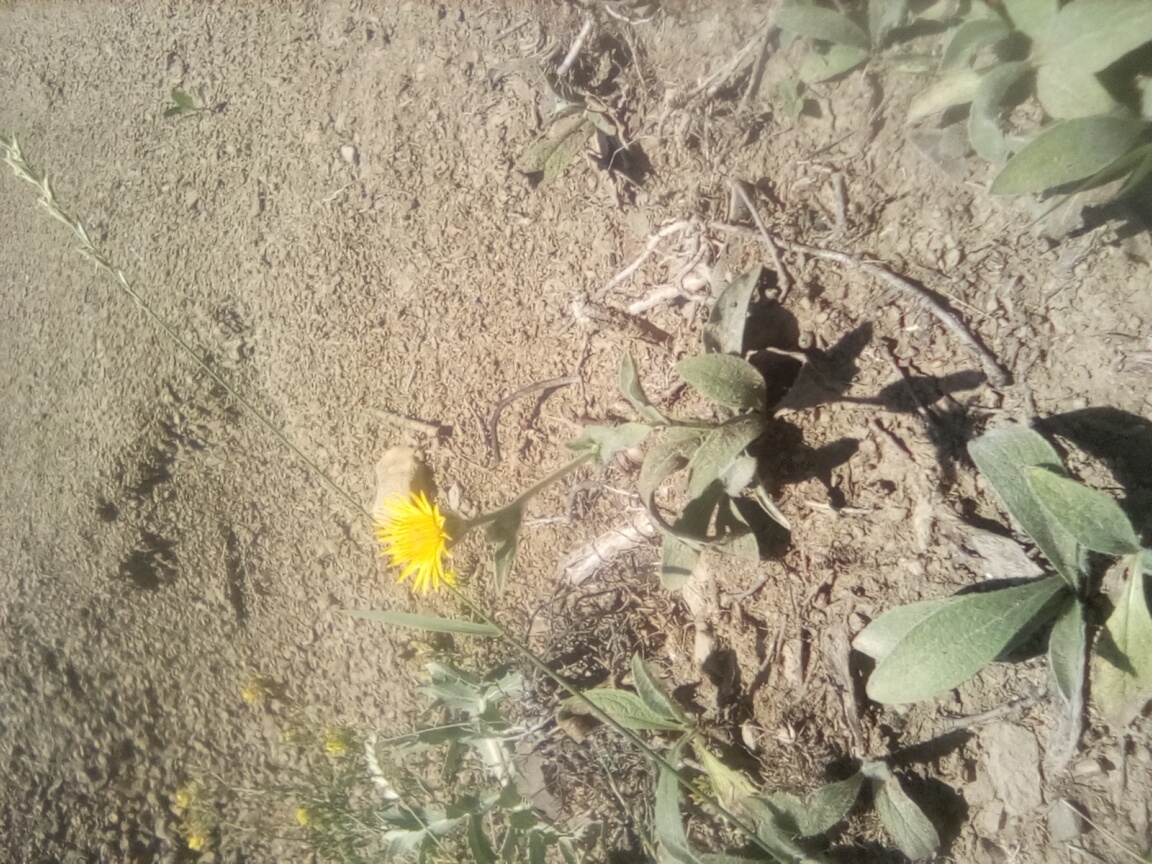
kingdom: Plantae
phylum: Tracheophyta
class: Magnoliopsida
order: Asterales
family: Asteraceae
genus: Pentanema
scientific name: Pentanema oculus-christi
